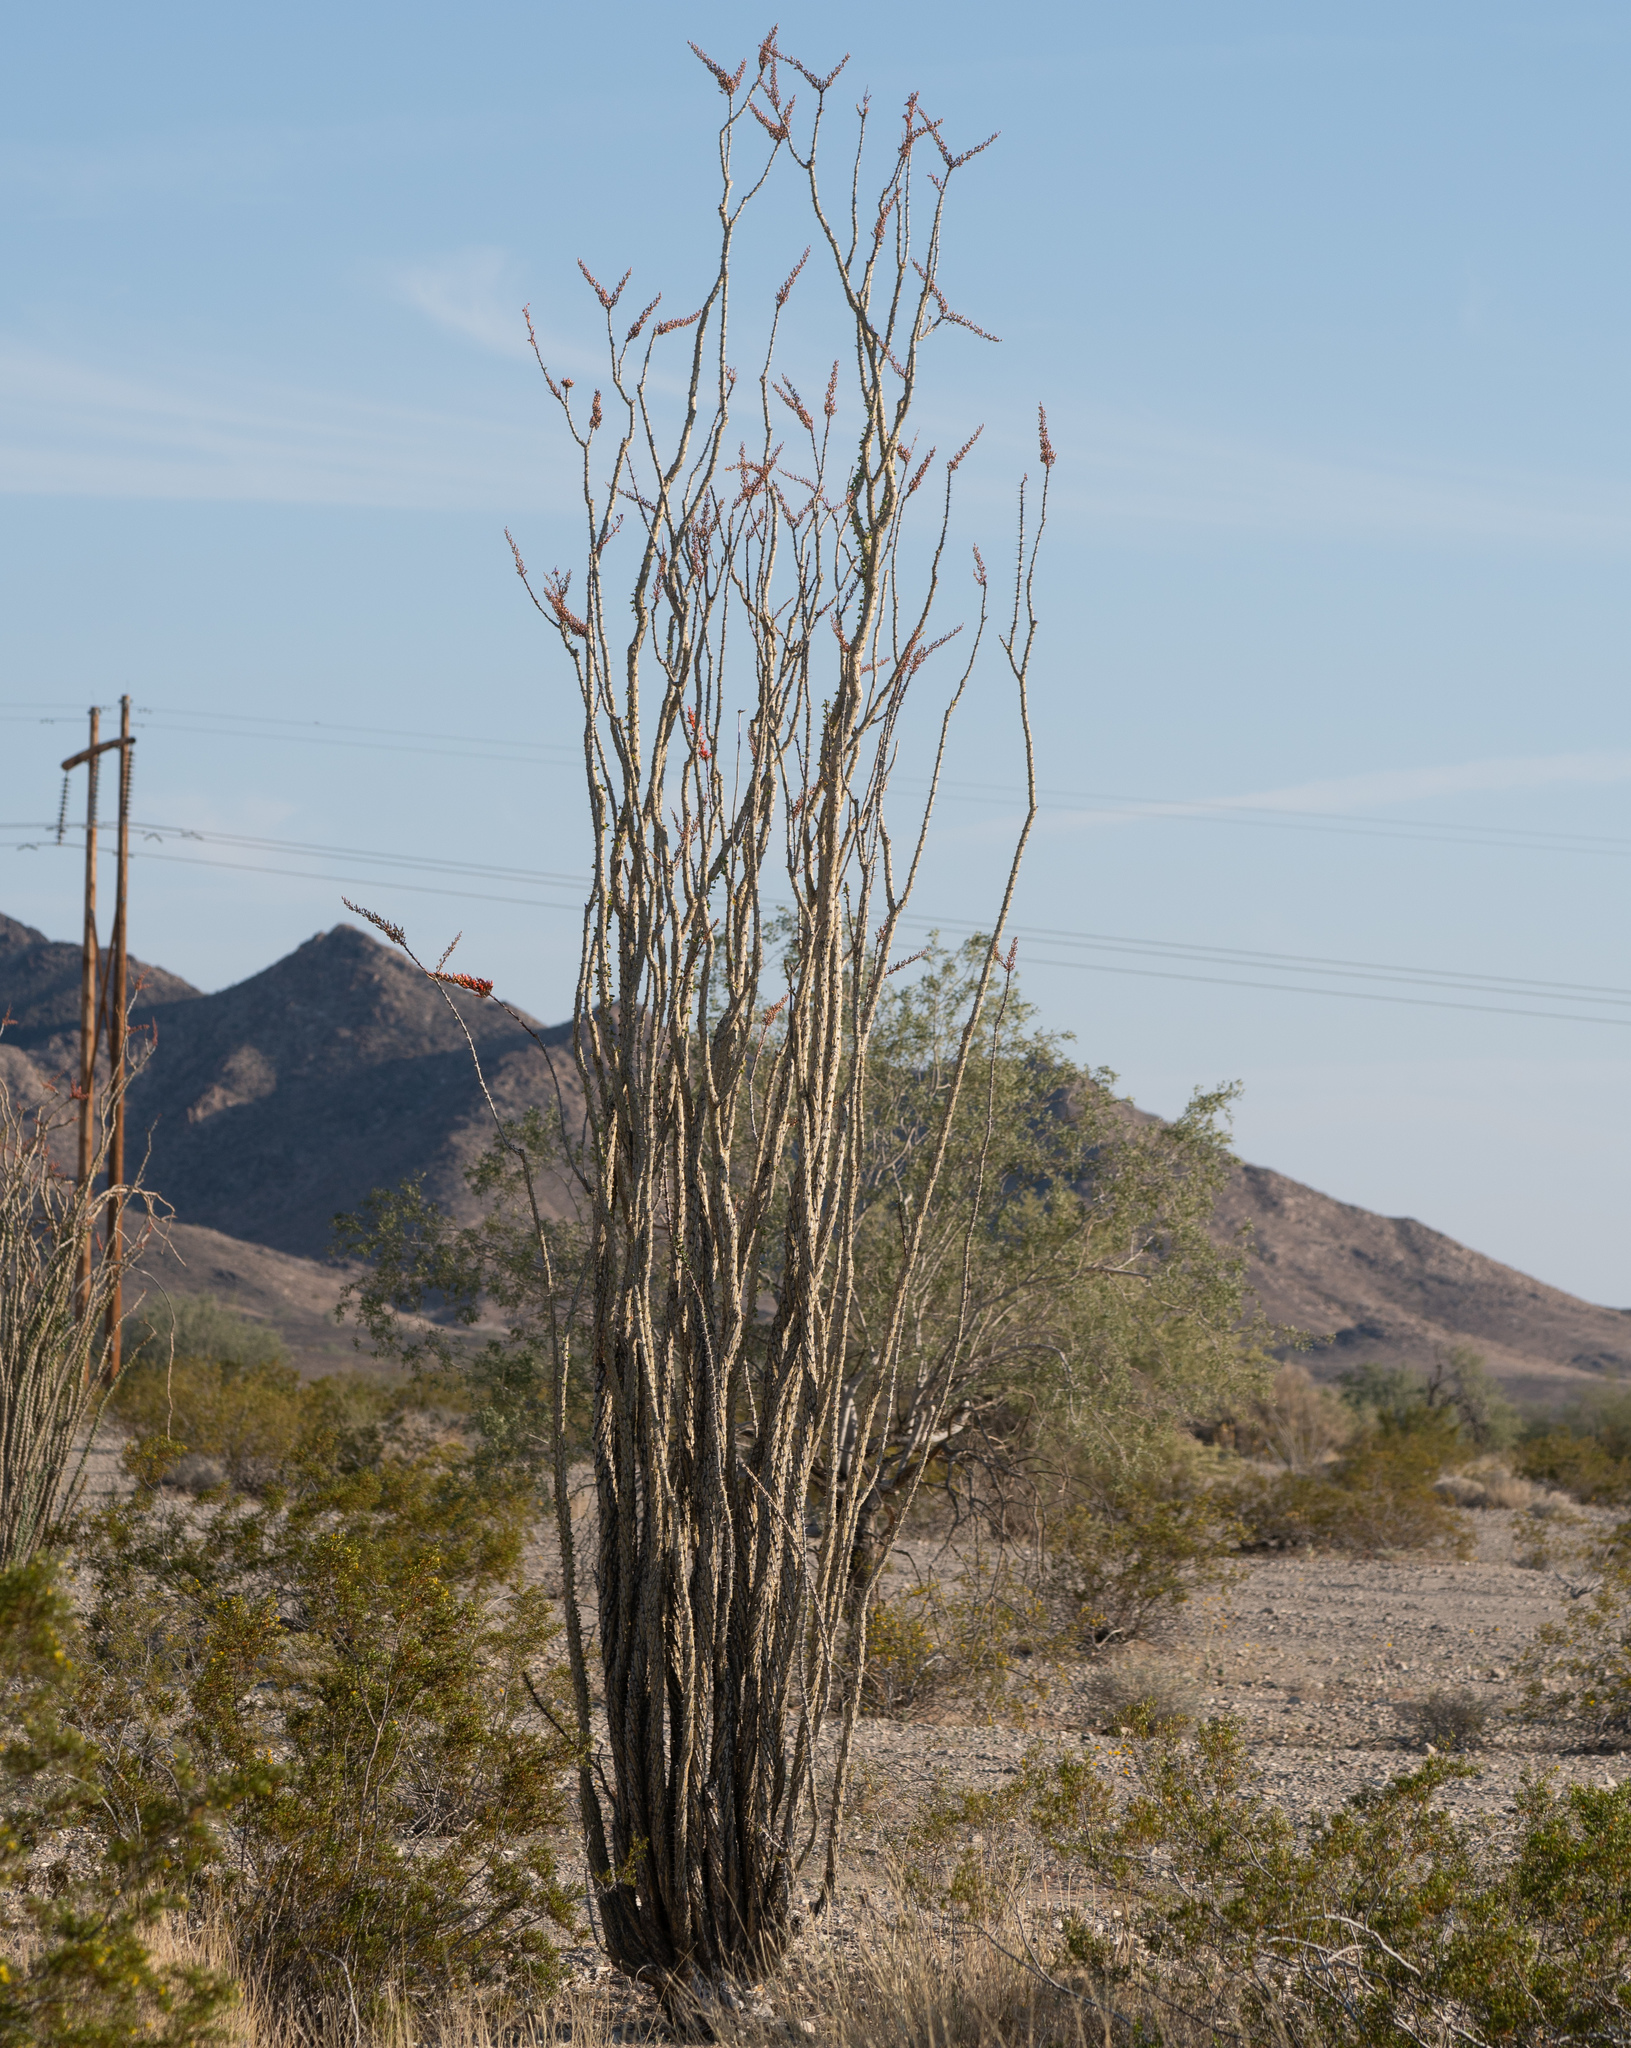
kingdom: Plantae
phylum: Tracheophyta
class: Magnoliopsida
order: Ericales
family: Fouquieriaceae
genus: Fouquieria
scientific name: Fouquieria splendens
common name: Vine-cactus
